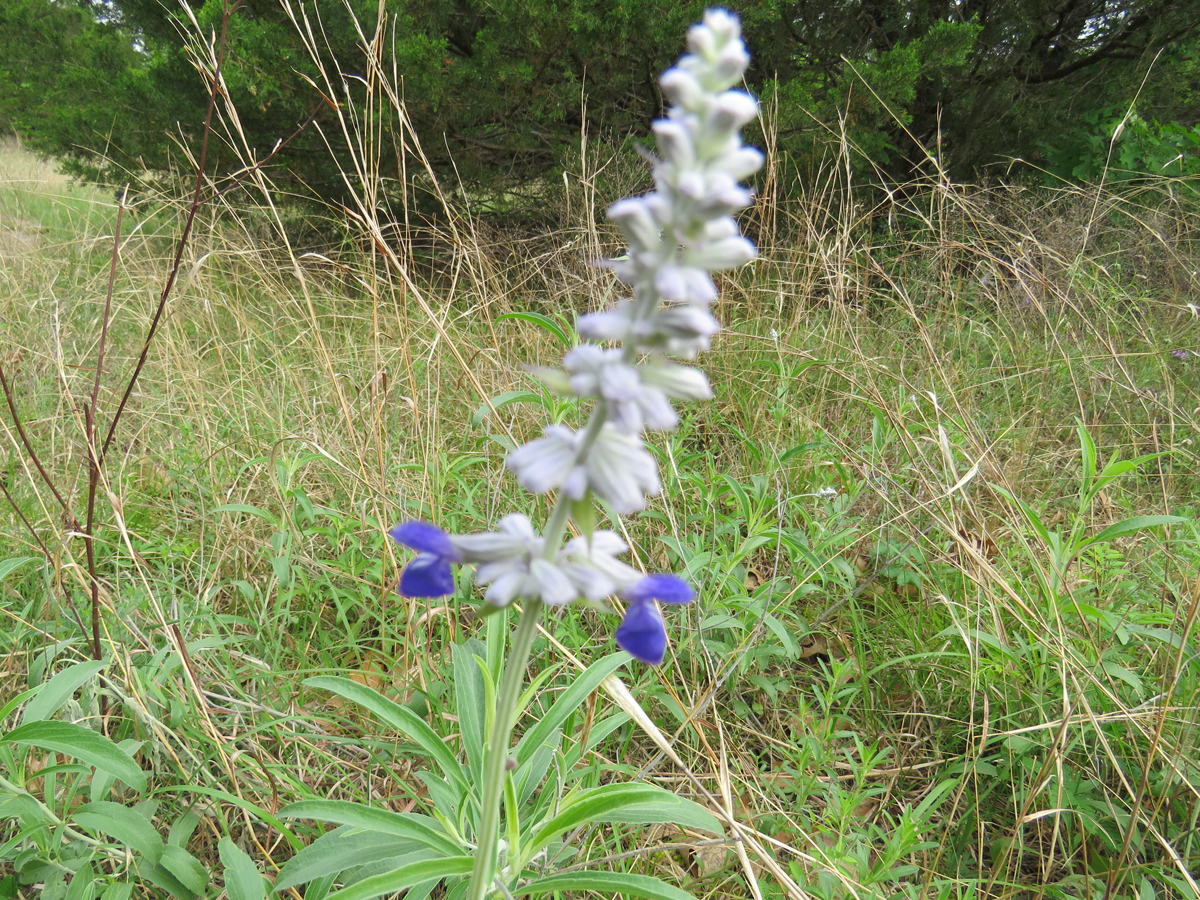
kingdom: Plantae
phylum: Tracheophyta
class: Magnoliopsida
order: Lamiales
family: Lamiaceae
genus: Salvia
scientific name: Salvia farinacea
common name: Mealy sage
